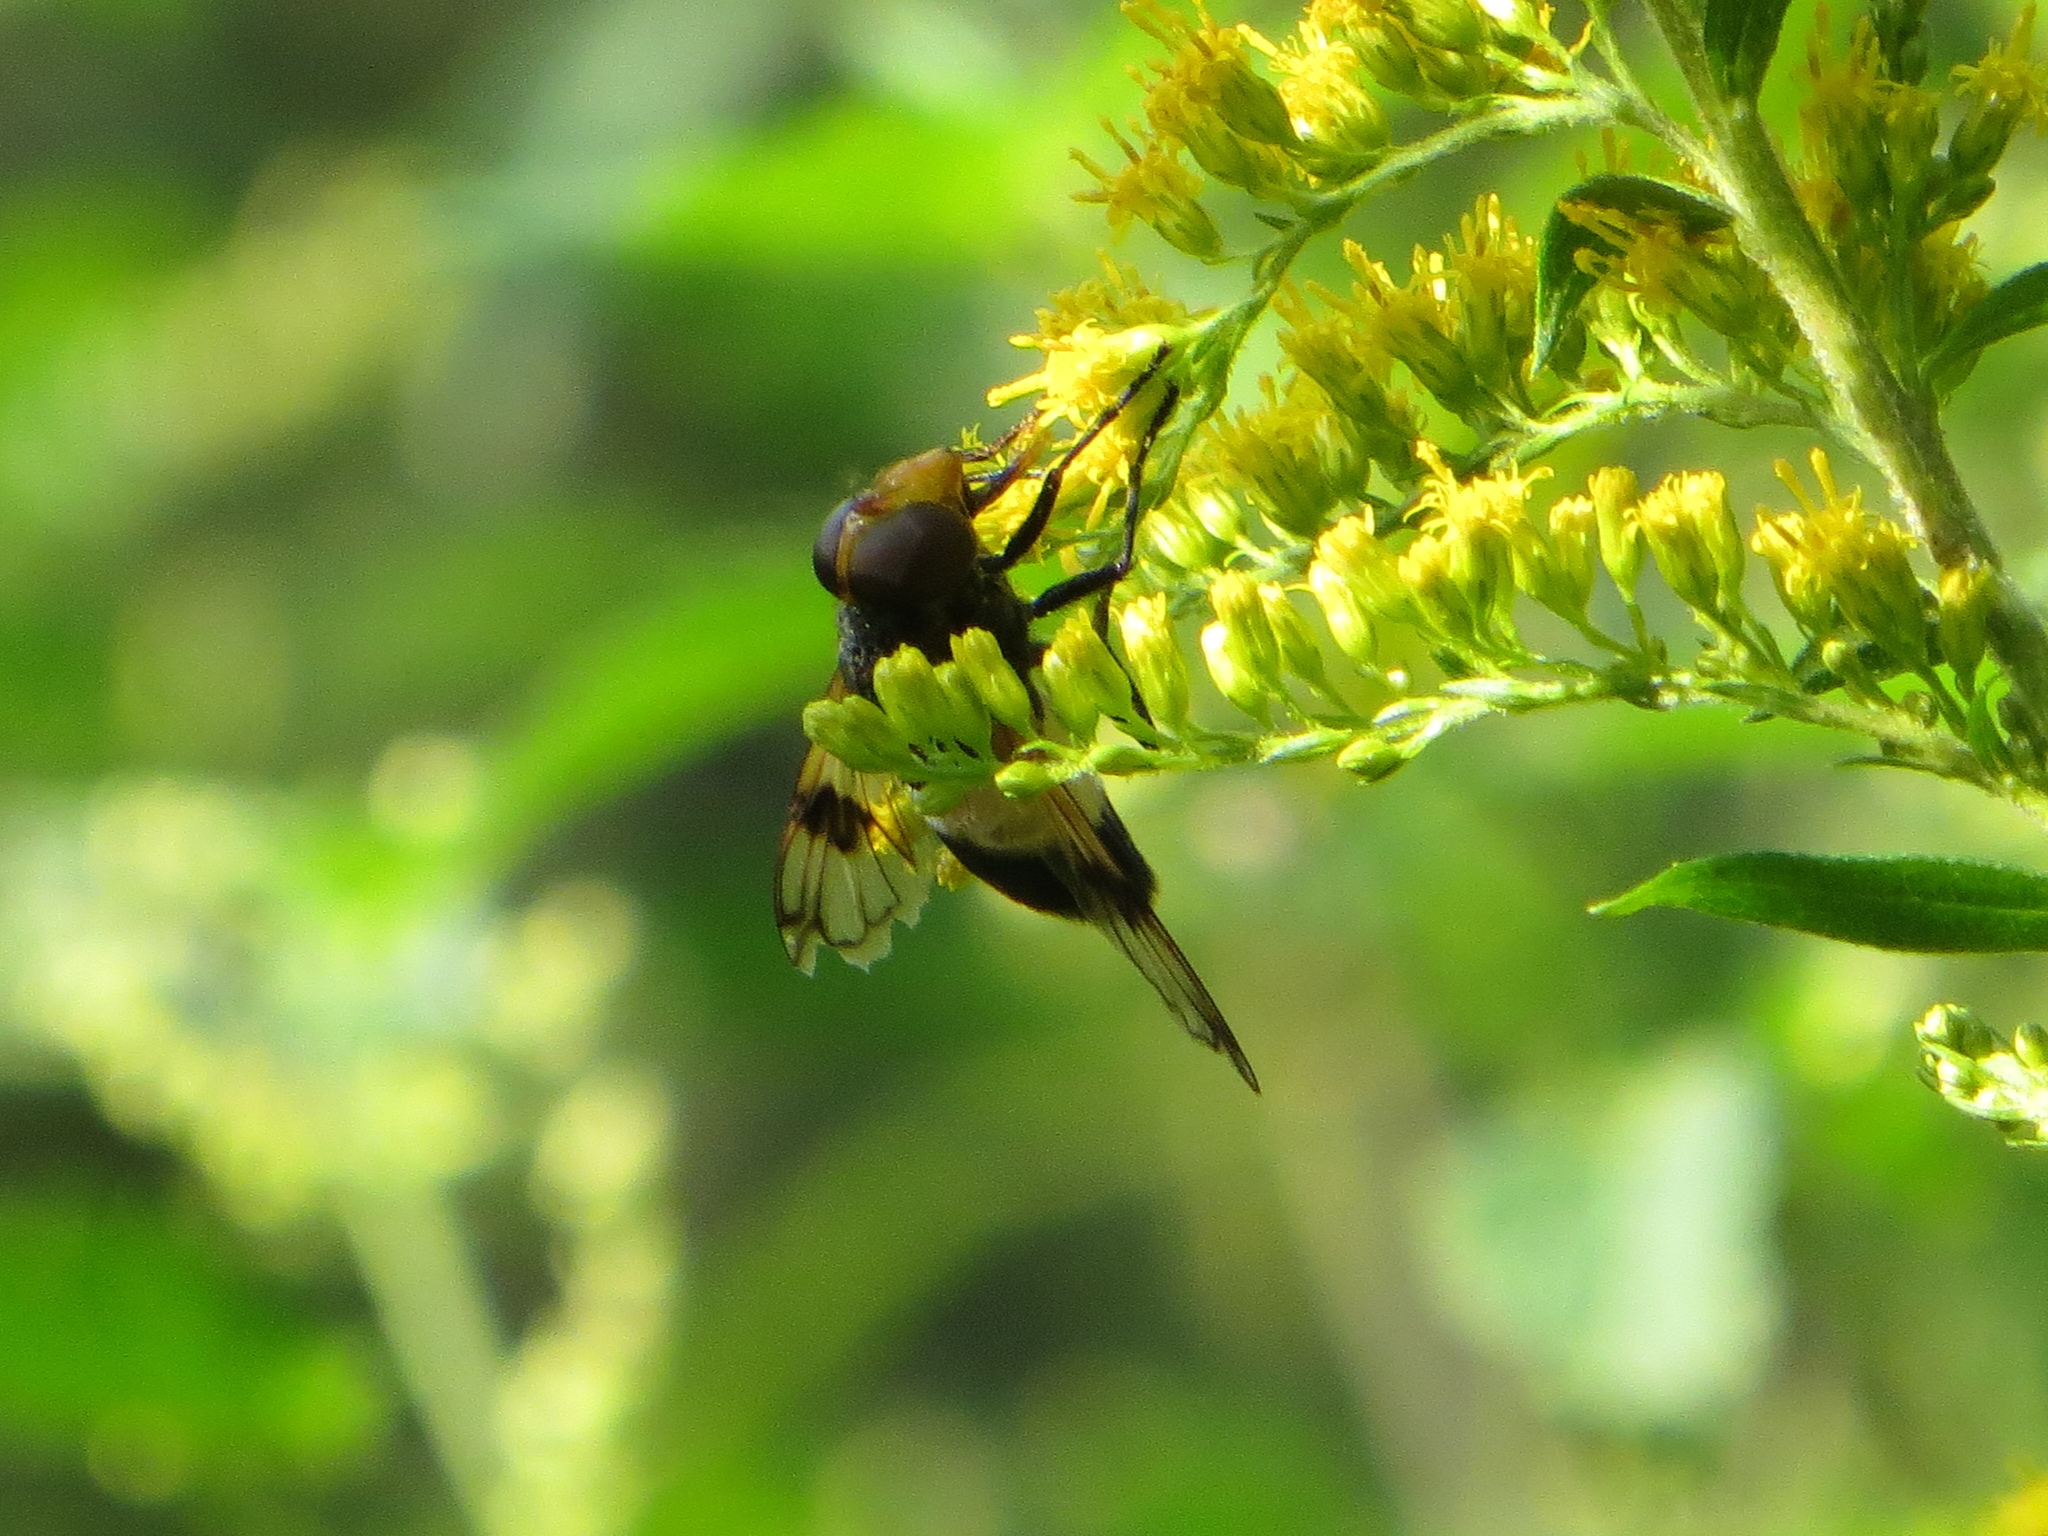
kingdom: Animalia
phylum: Arthropoda
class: Insecta
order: Diptera
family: Syrphidae
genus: Volucella
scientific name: Volucella pellucens
